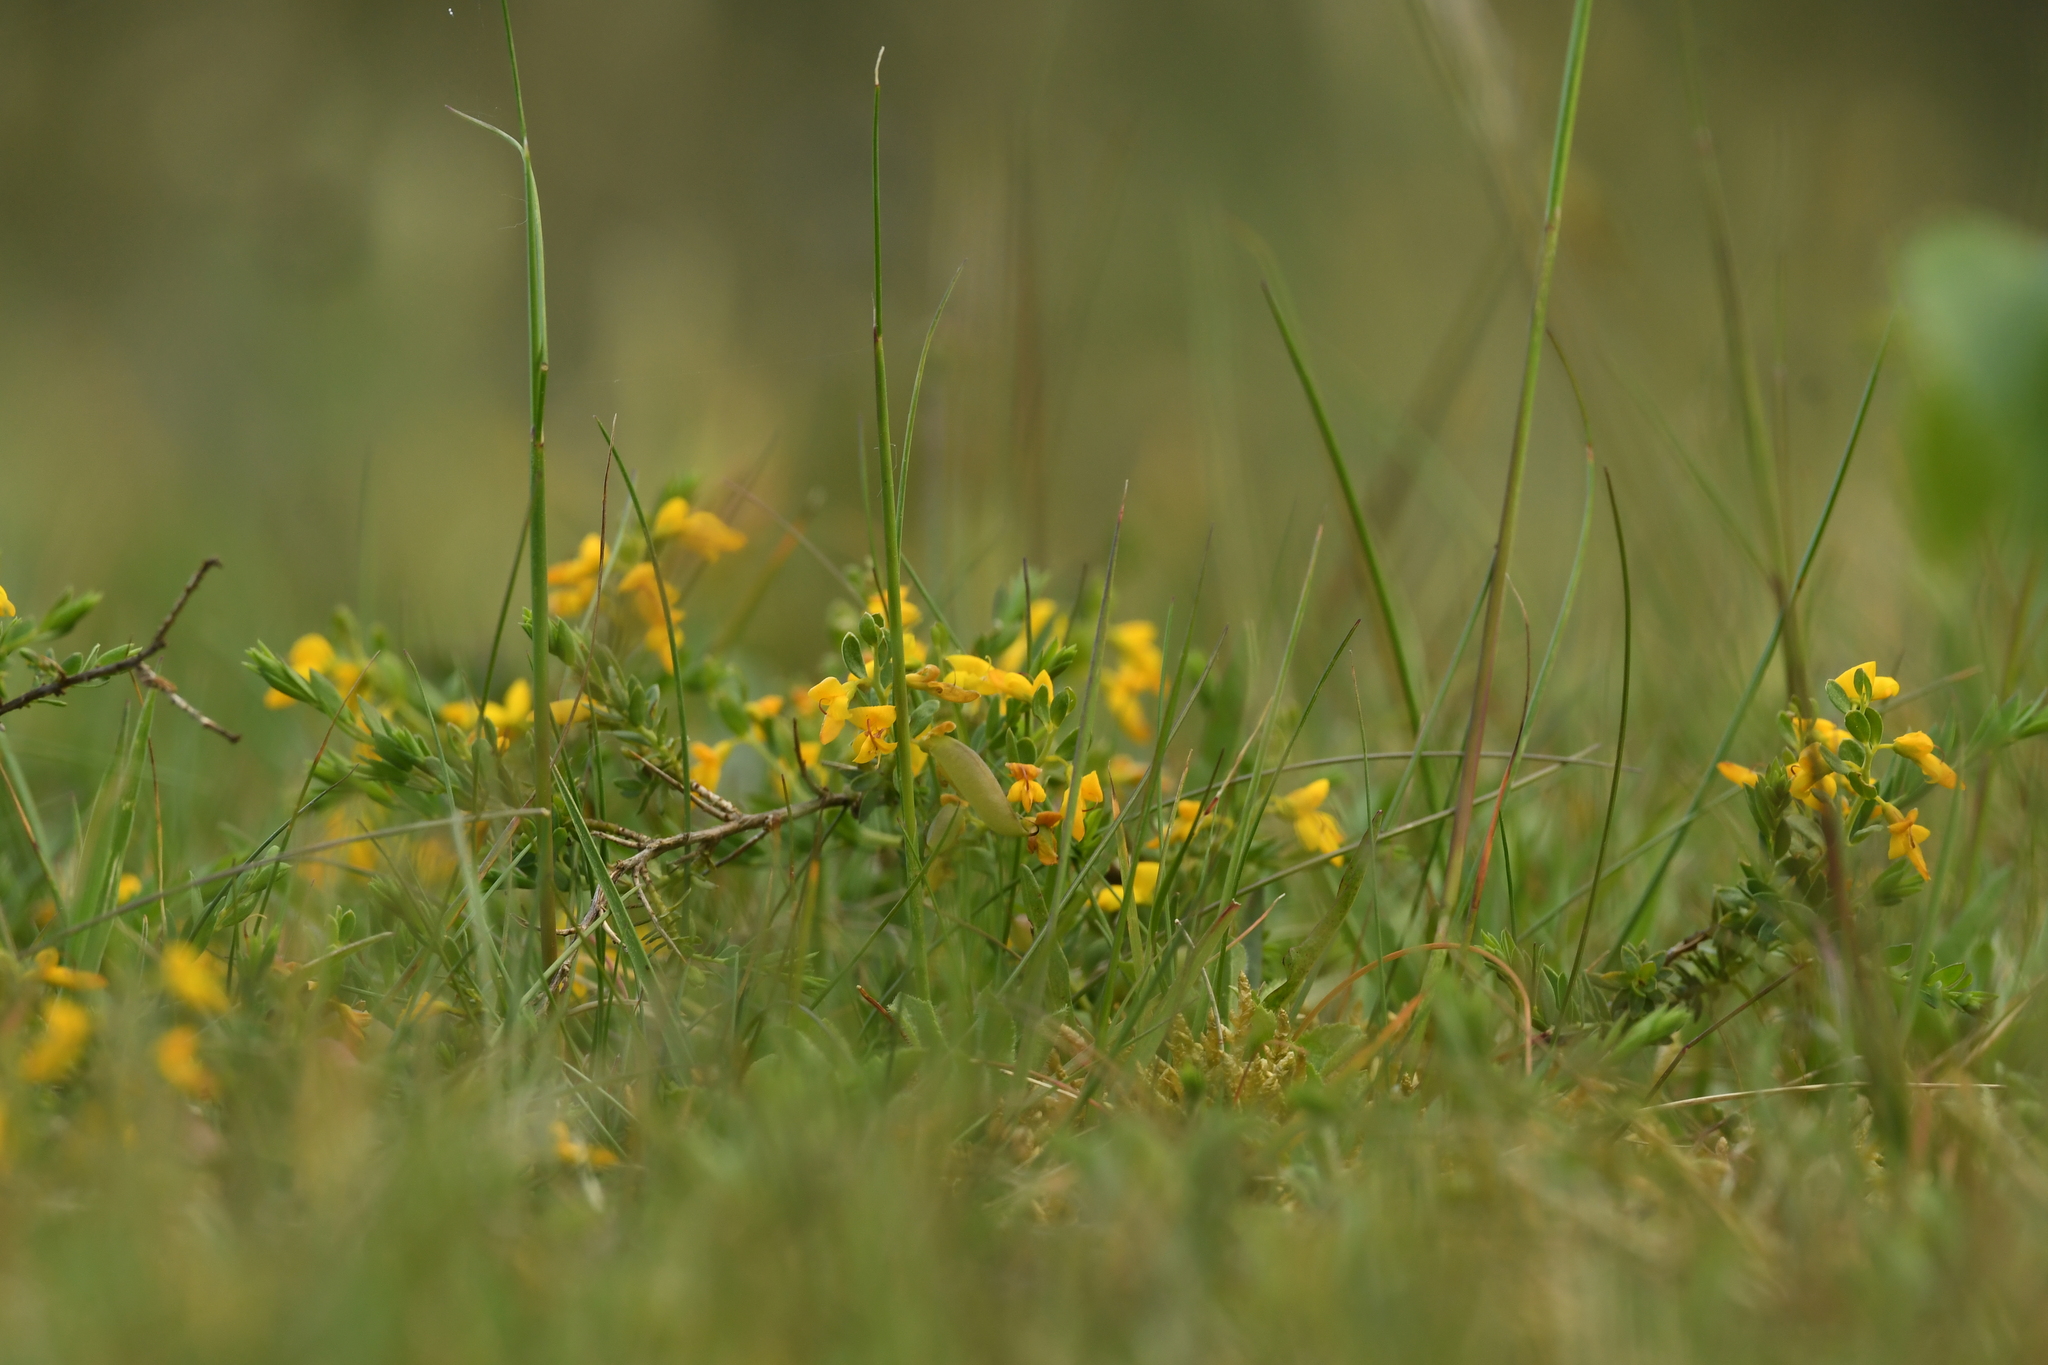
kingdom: Plantae
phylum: Tracheophyta
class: Magnoliopsida
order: Fabales
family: Fabaceae
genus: Genista
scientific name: Genista anglica
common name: Petty whin
